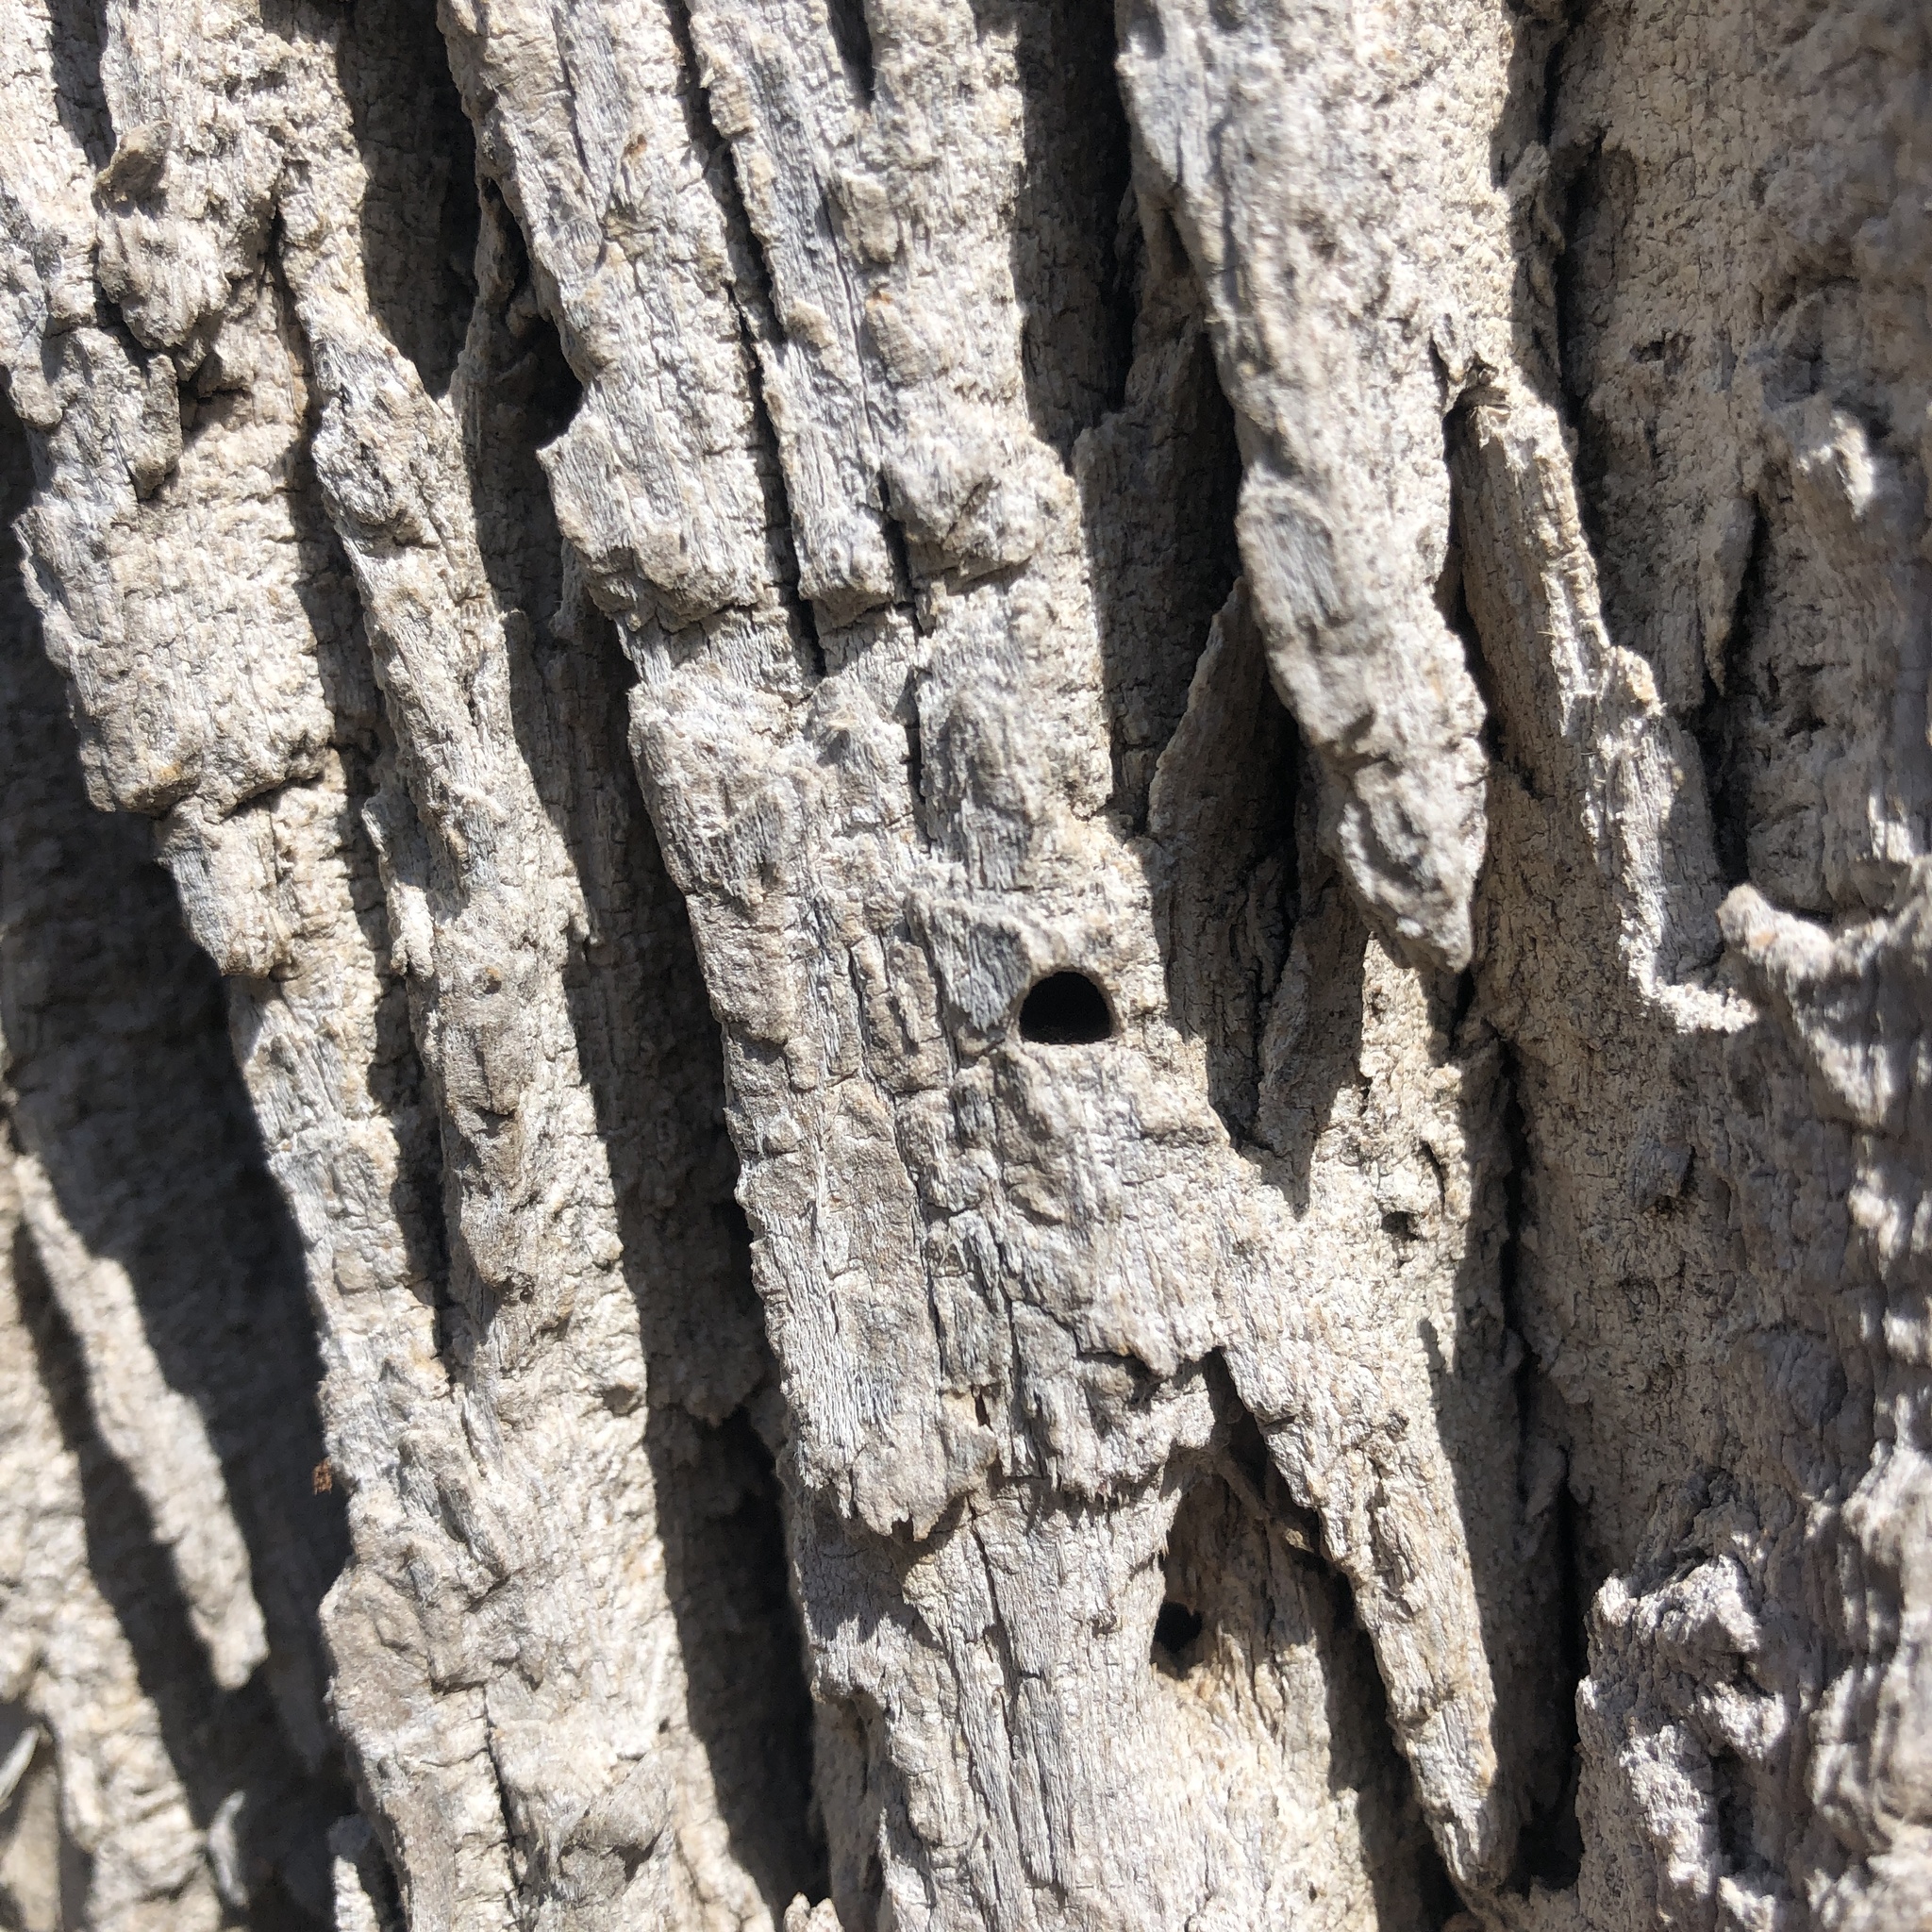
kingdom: Animalia
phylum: Arthropoda
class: Insecta
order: Coleoptera
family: Buprestidae
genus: Agrilus
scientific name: Agrilus planipennis
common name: Emerald ash borer
